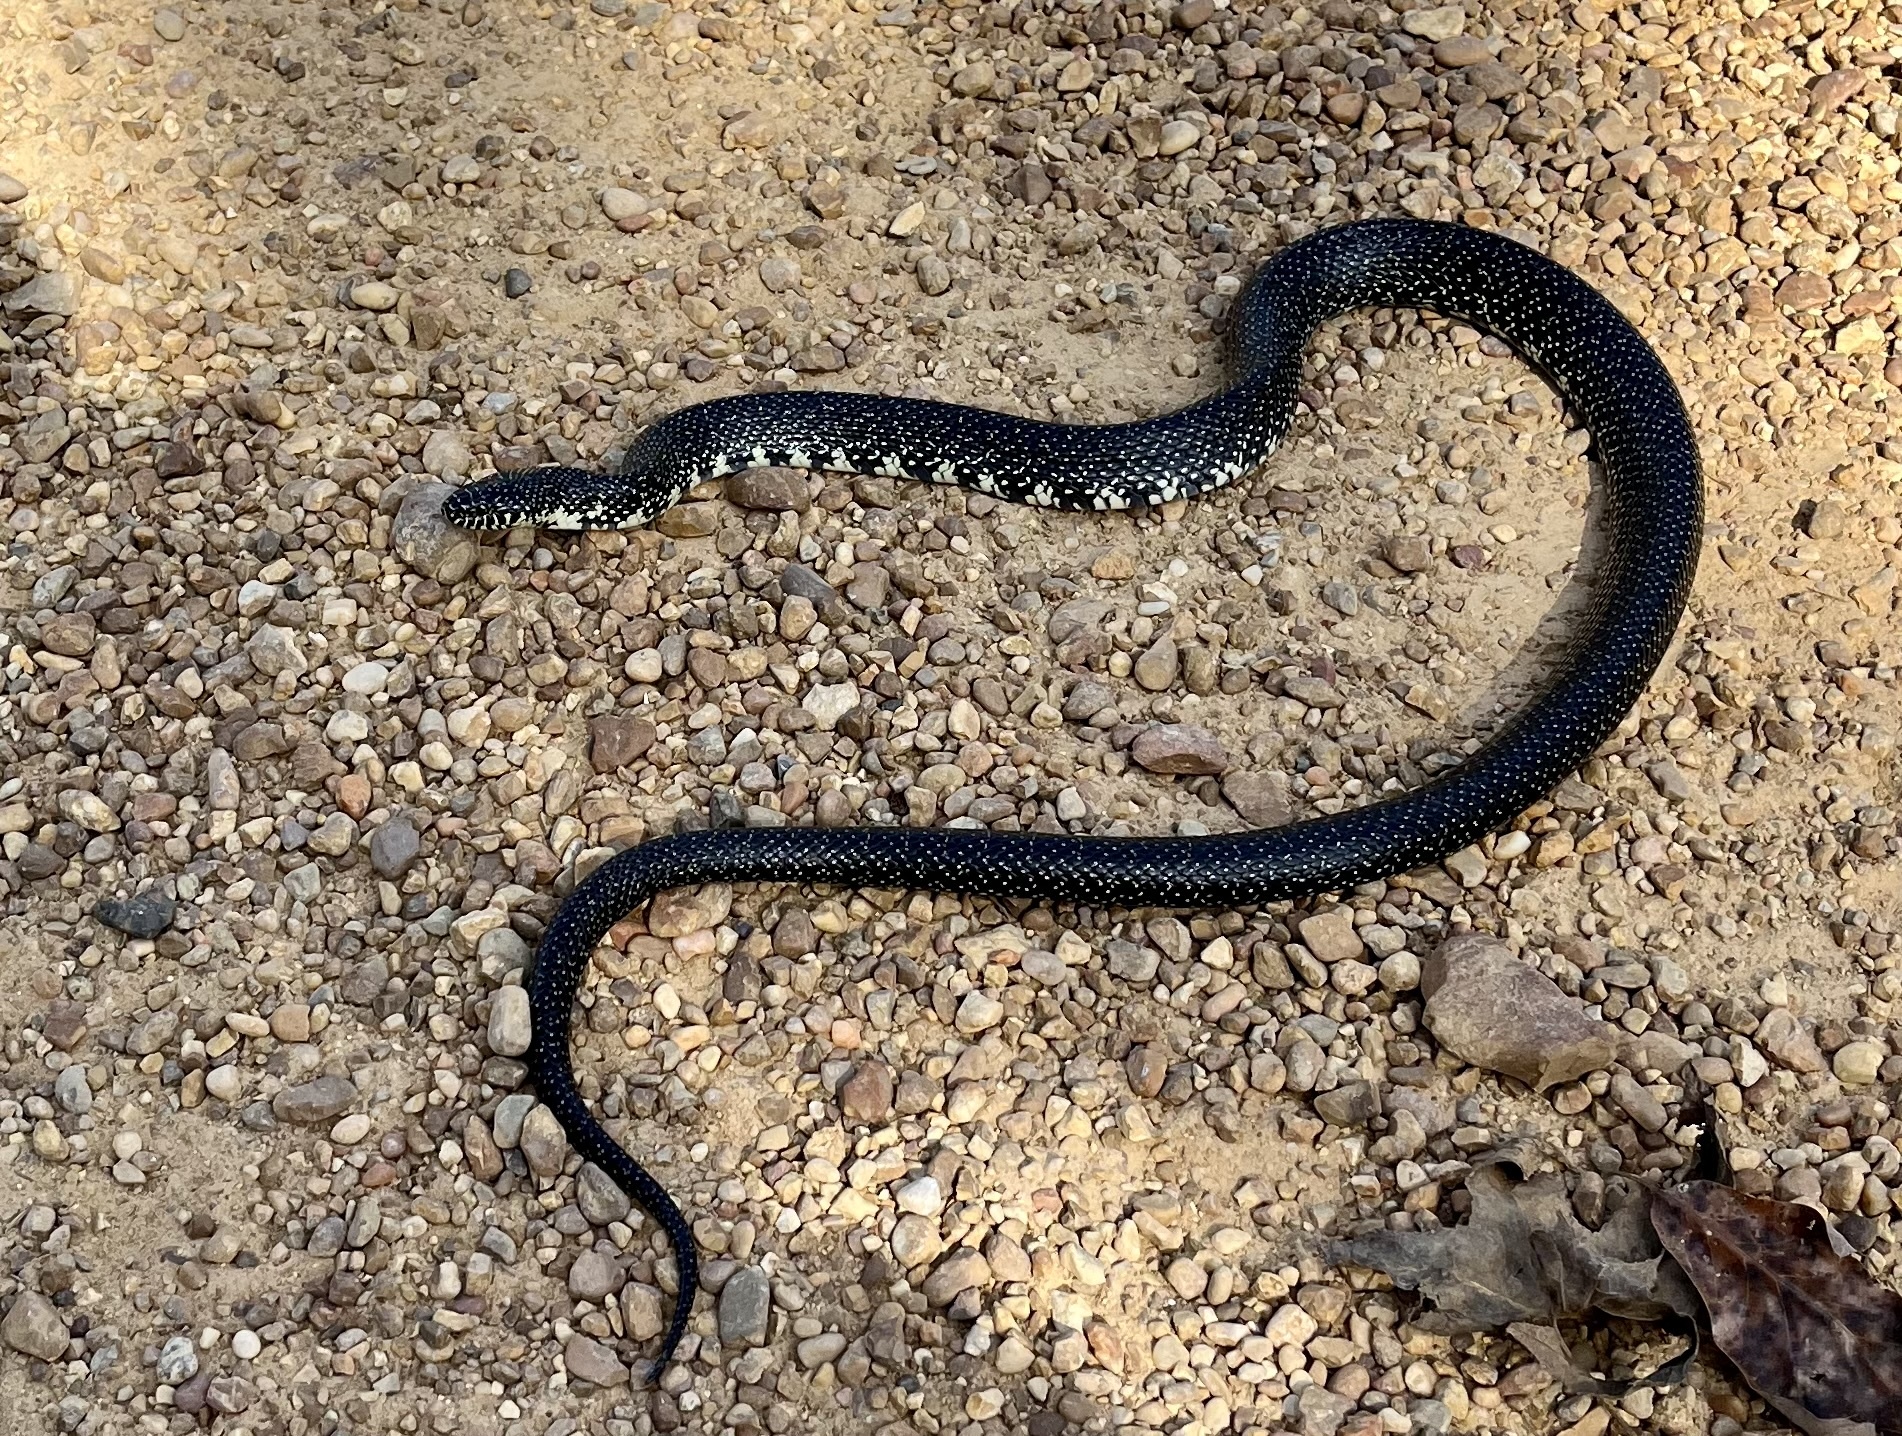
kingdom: Animalia
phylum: Chordata
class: Squamata
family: Colubridae
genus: Lampropeltis
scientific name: Lampropeltis nigra
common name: Black kingsnake
